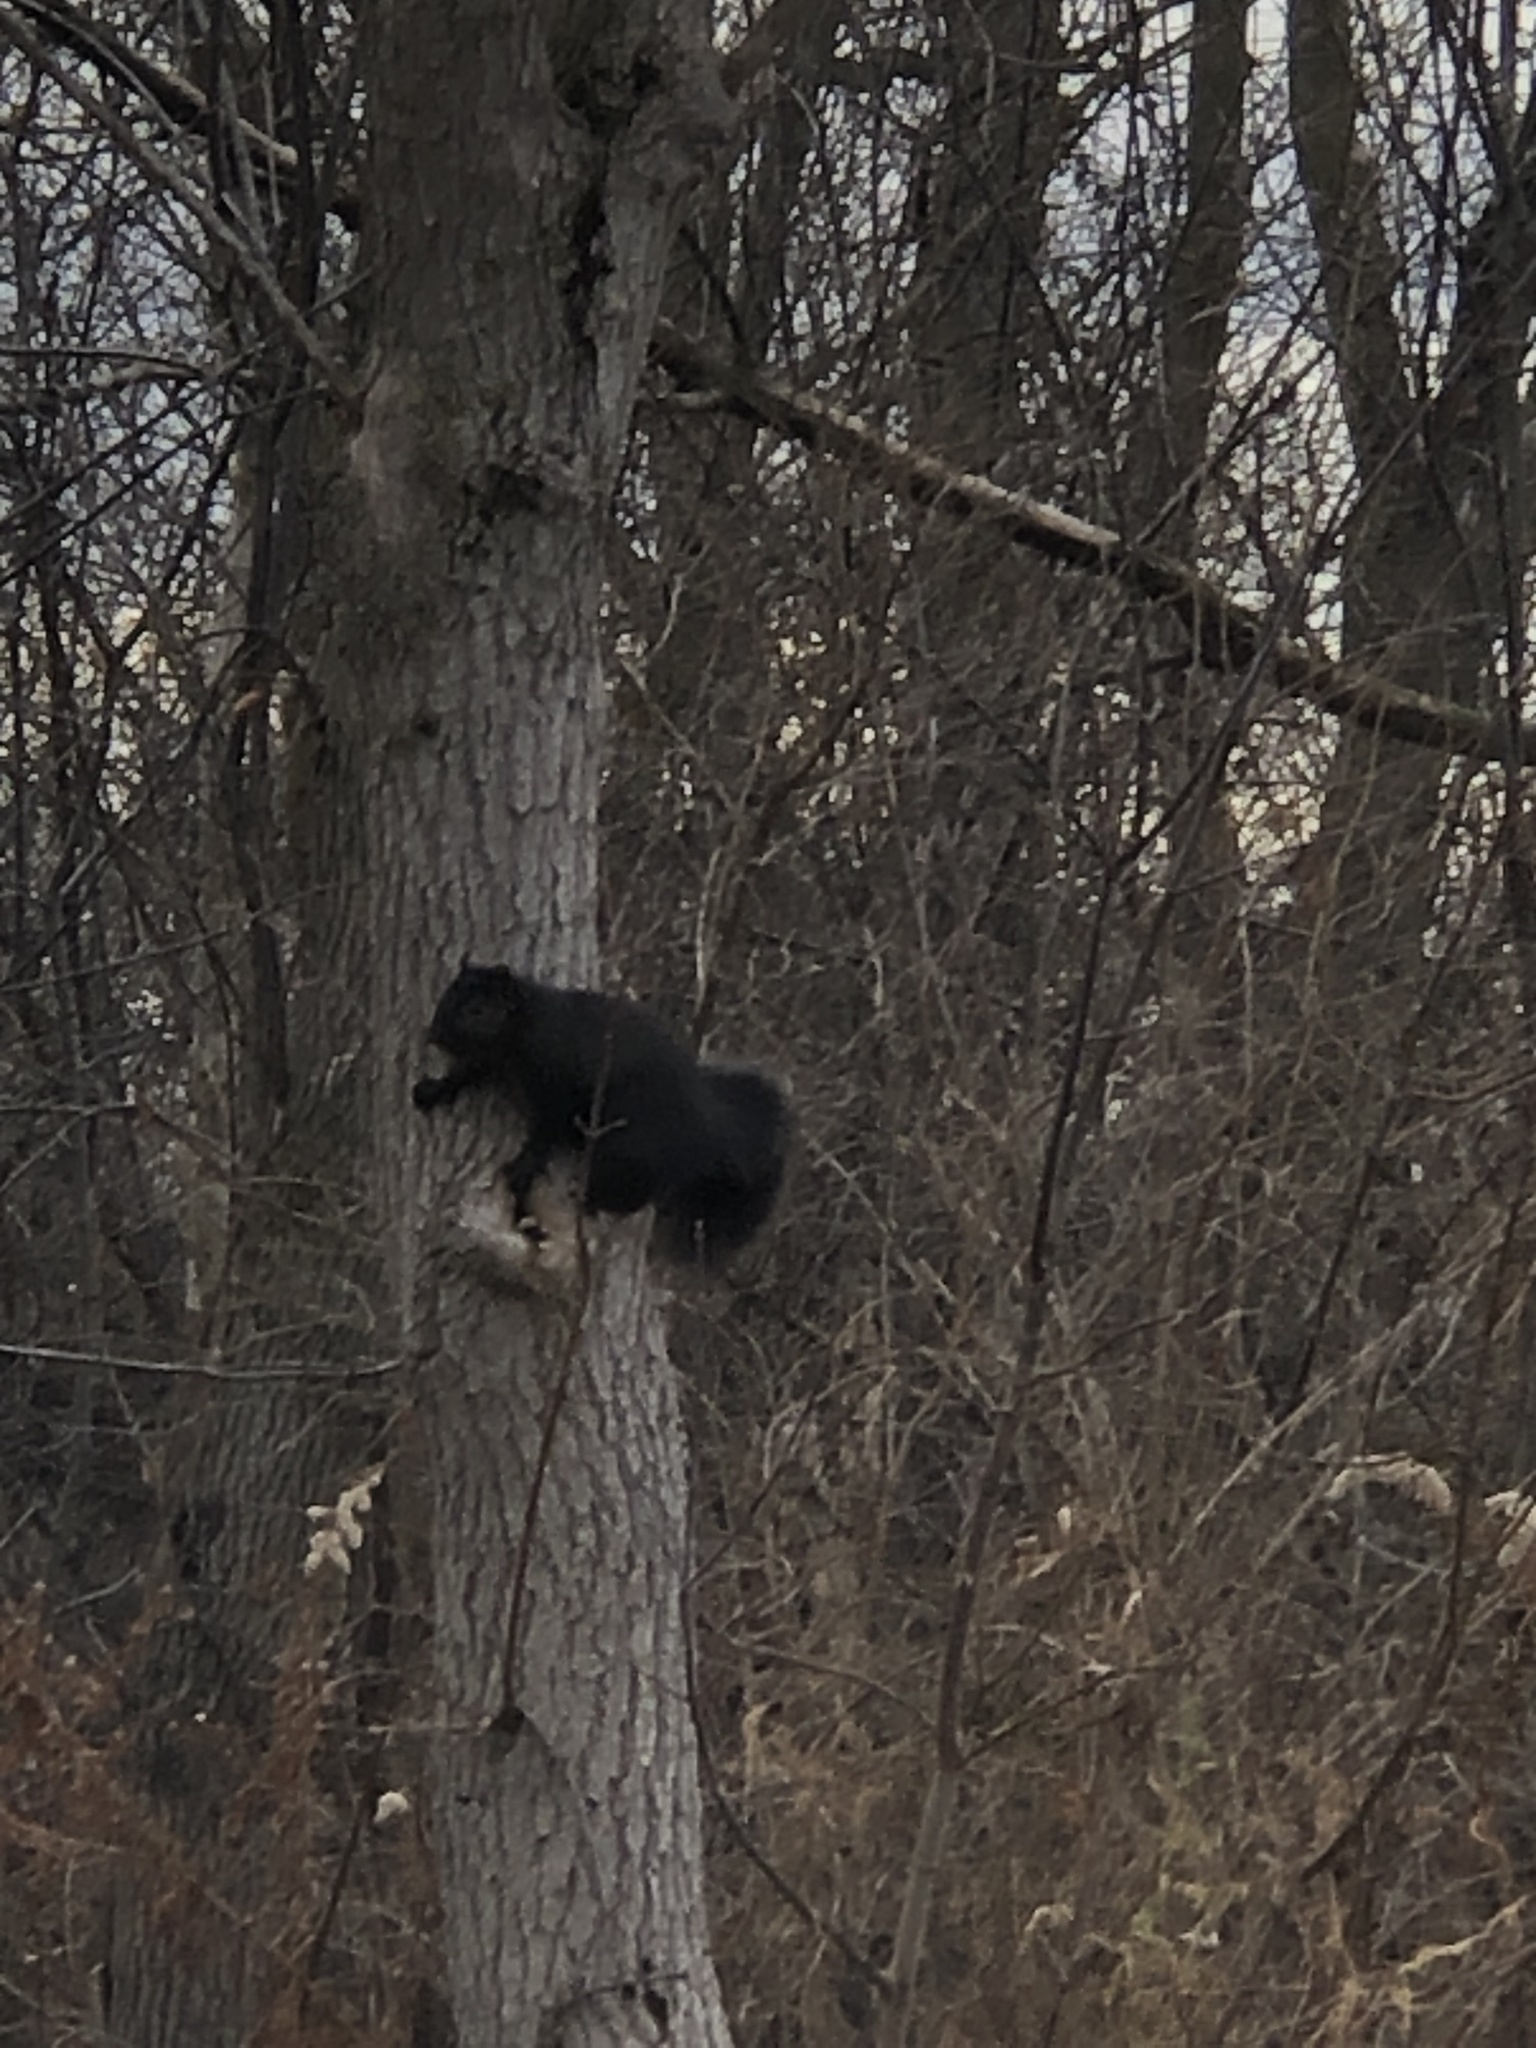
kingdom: Animalia
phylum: Chordata
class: Mammalia
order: Rodentia
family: Sciuridae
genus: Sciurus
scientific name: Sciurus carolinensis
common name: Eastern gray squirrel
